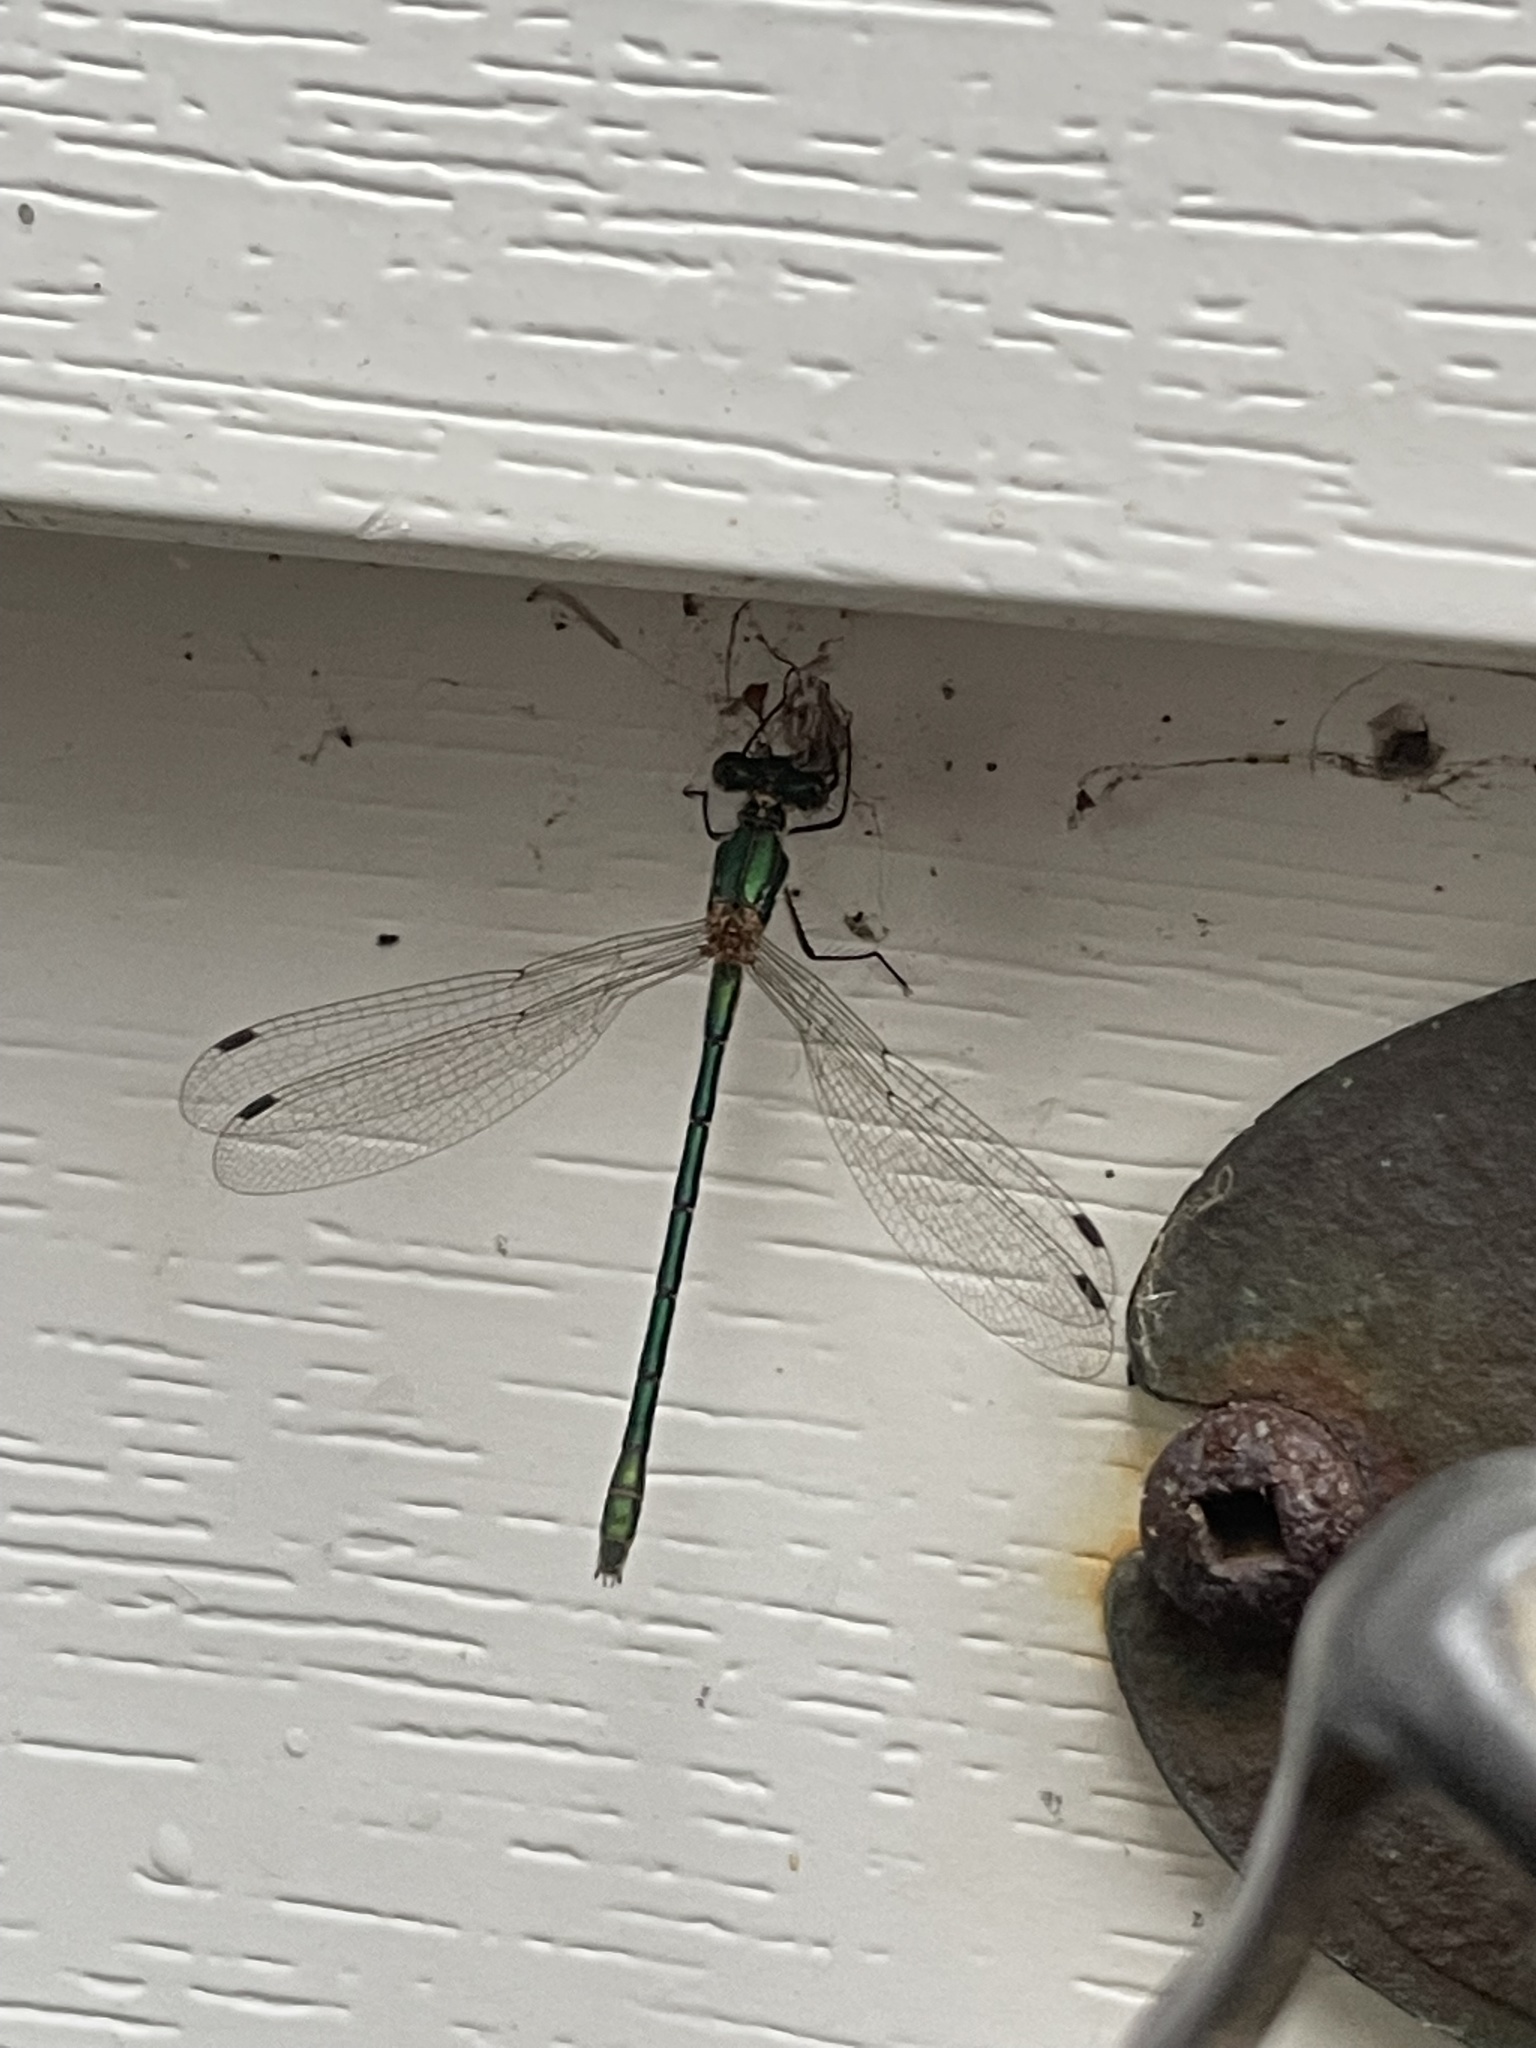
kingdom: Animalia
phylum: Arthropoda
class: Insecta
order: Odonata
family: Lestidae
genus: Lestes
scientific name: Lestes dryas
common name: Scarce emerald damselfly
